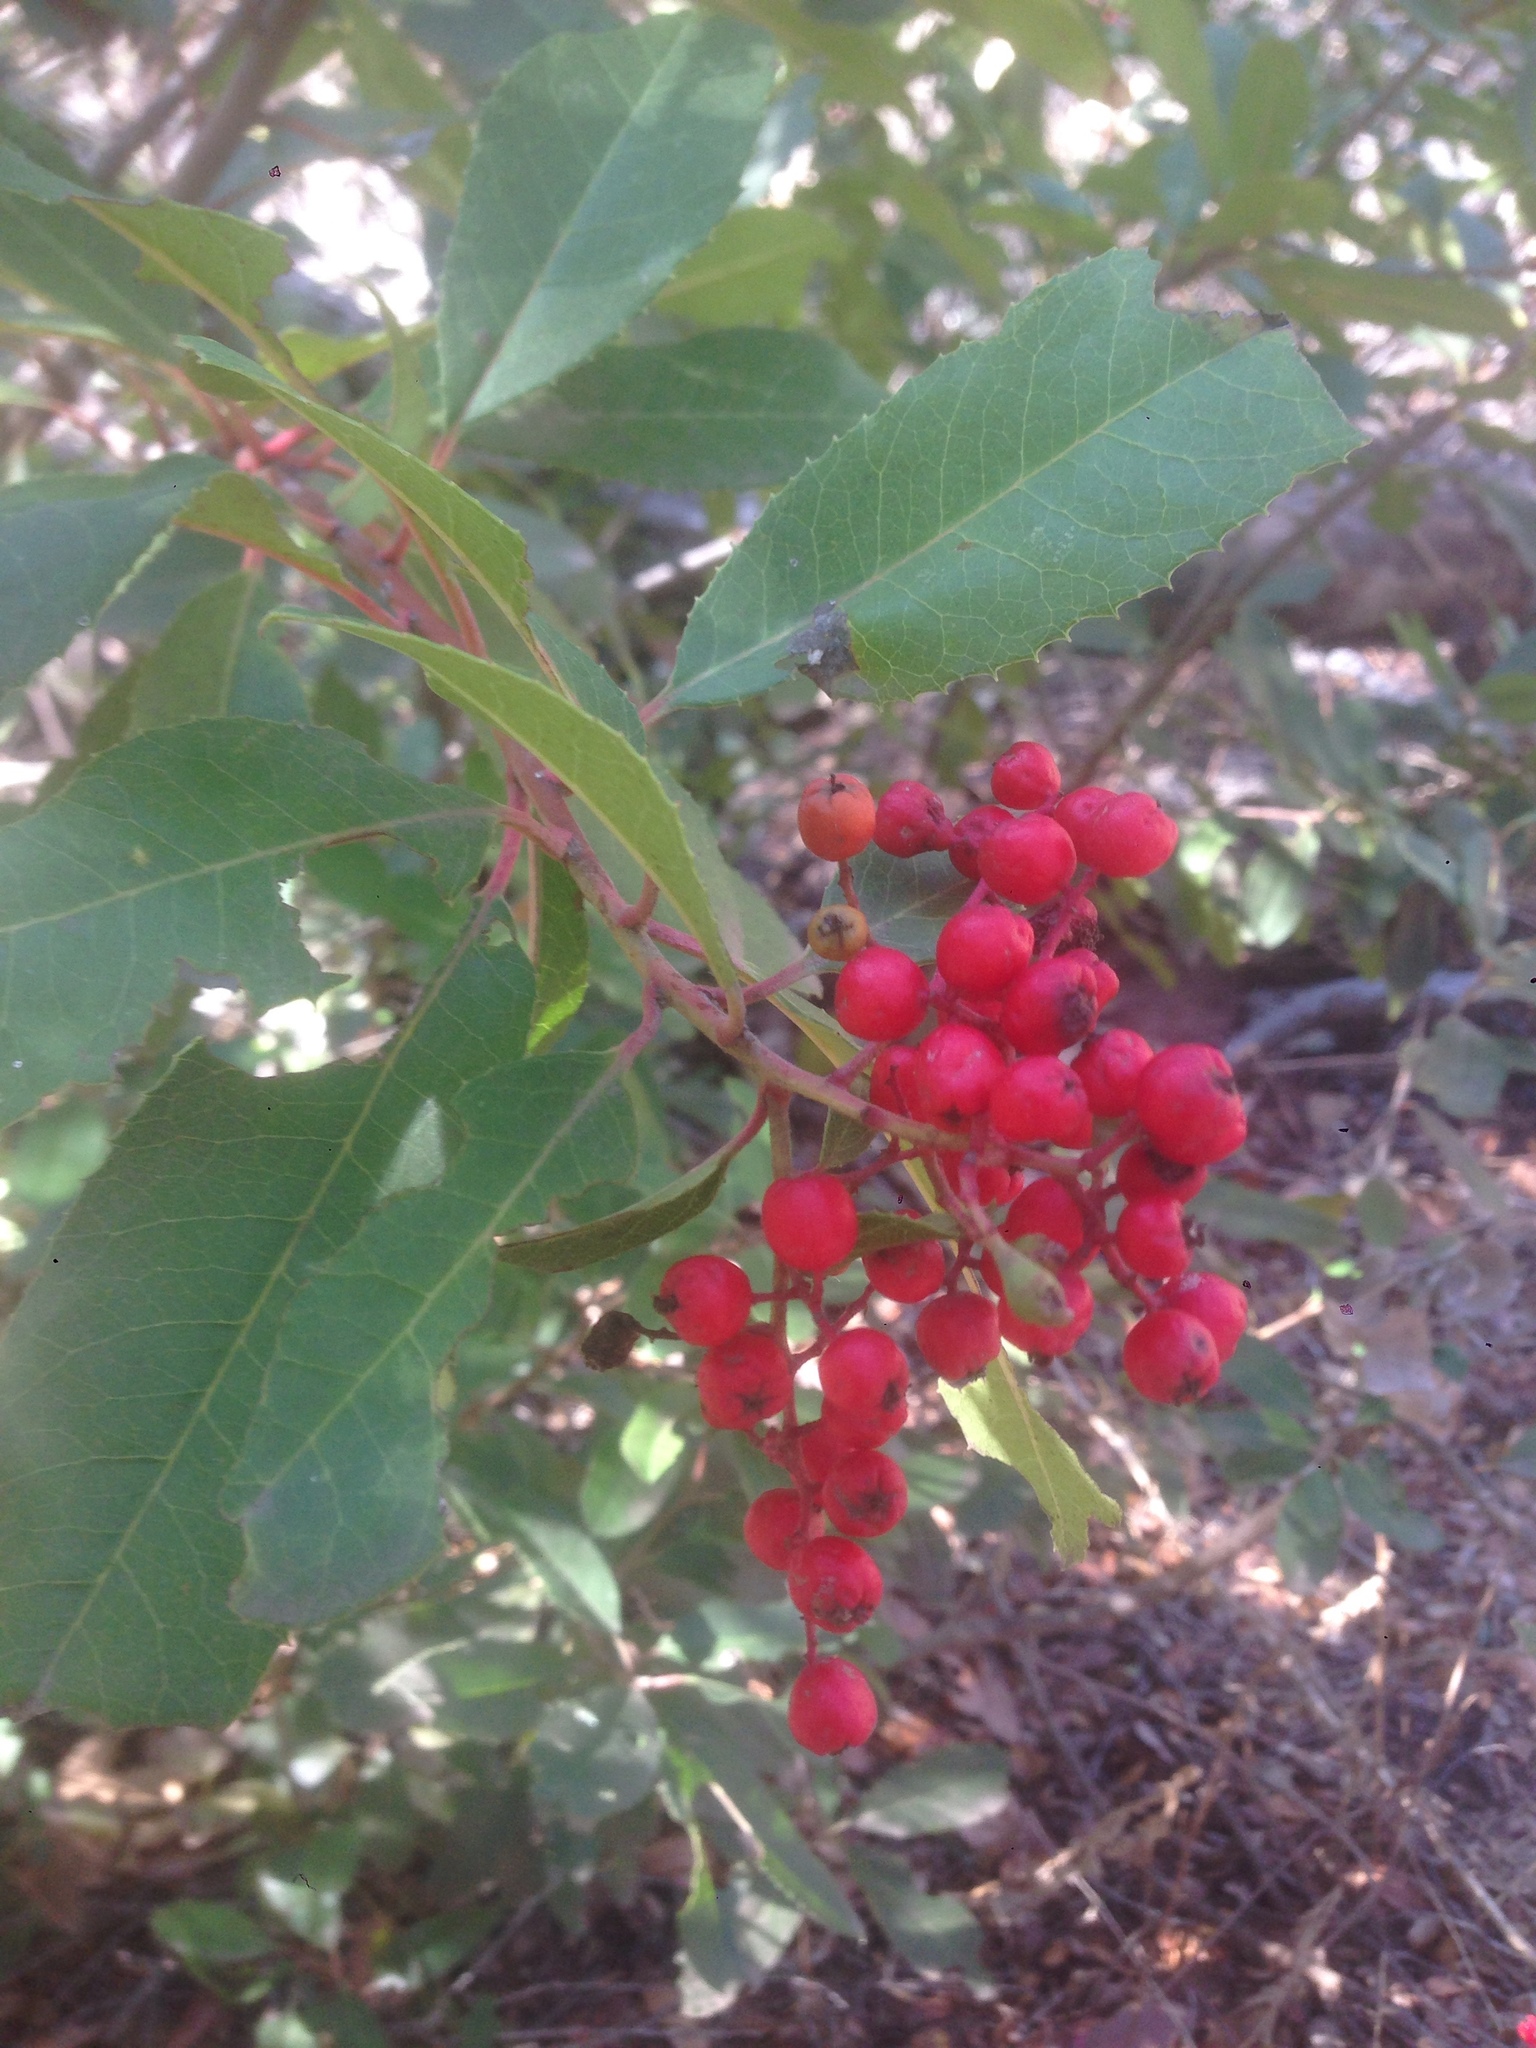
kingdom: Plantae
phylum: Tracheophyta
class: Magnoliopsida
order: Rosales
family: Rosaceae
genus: Heteromeles
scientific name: Heteromeles arbutifolia
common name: California-holly
